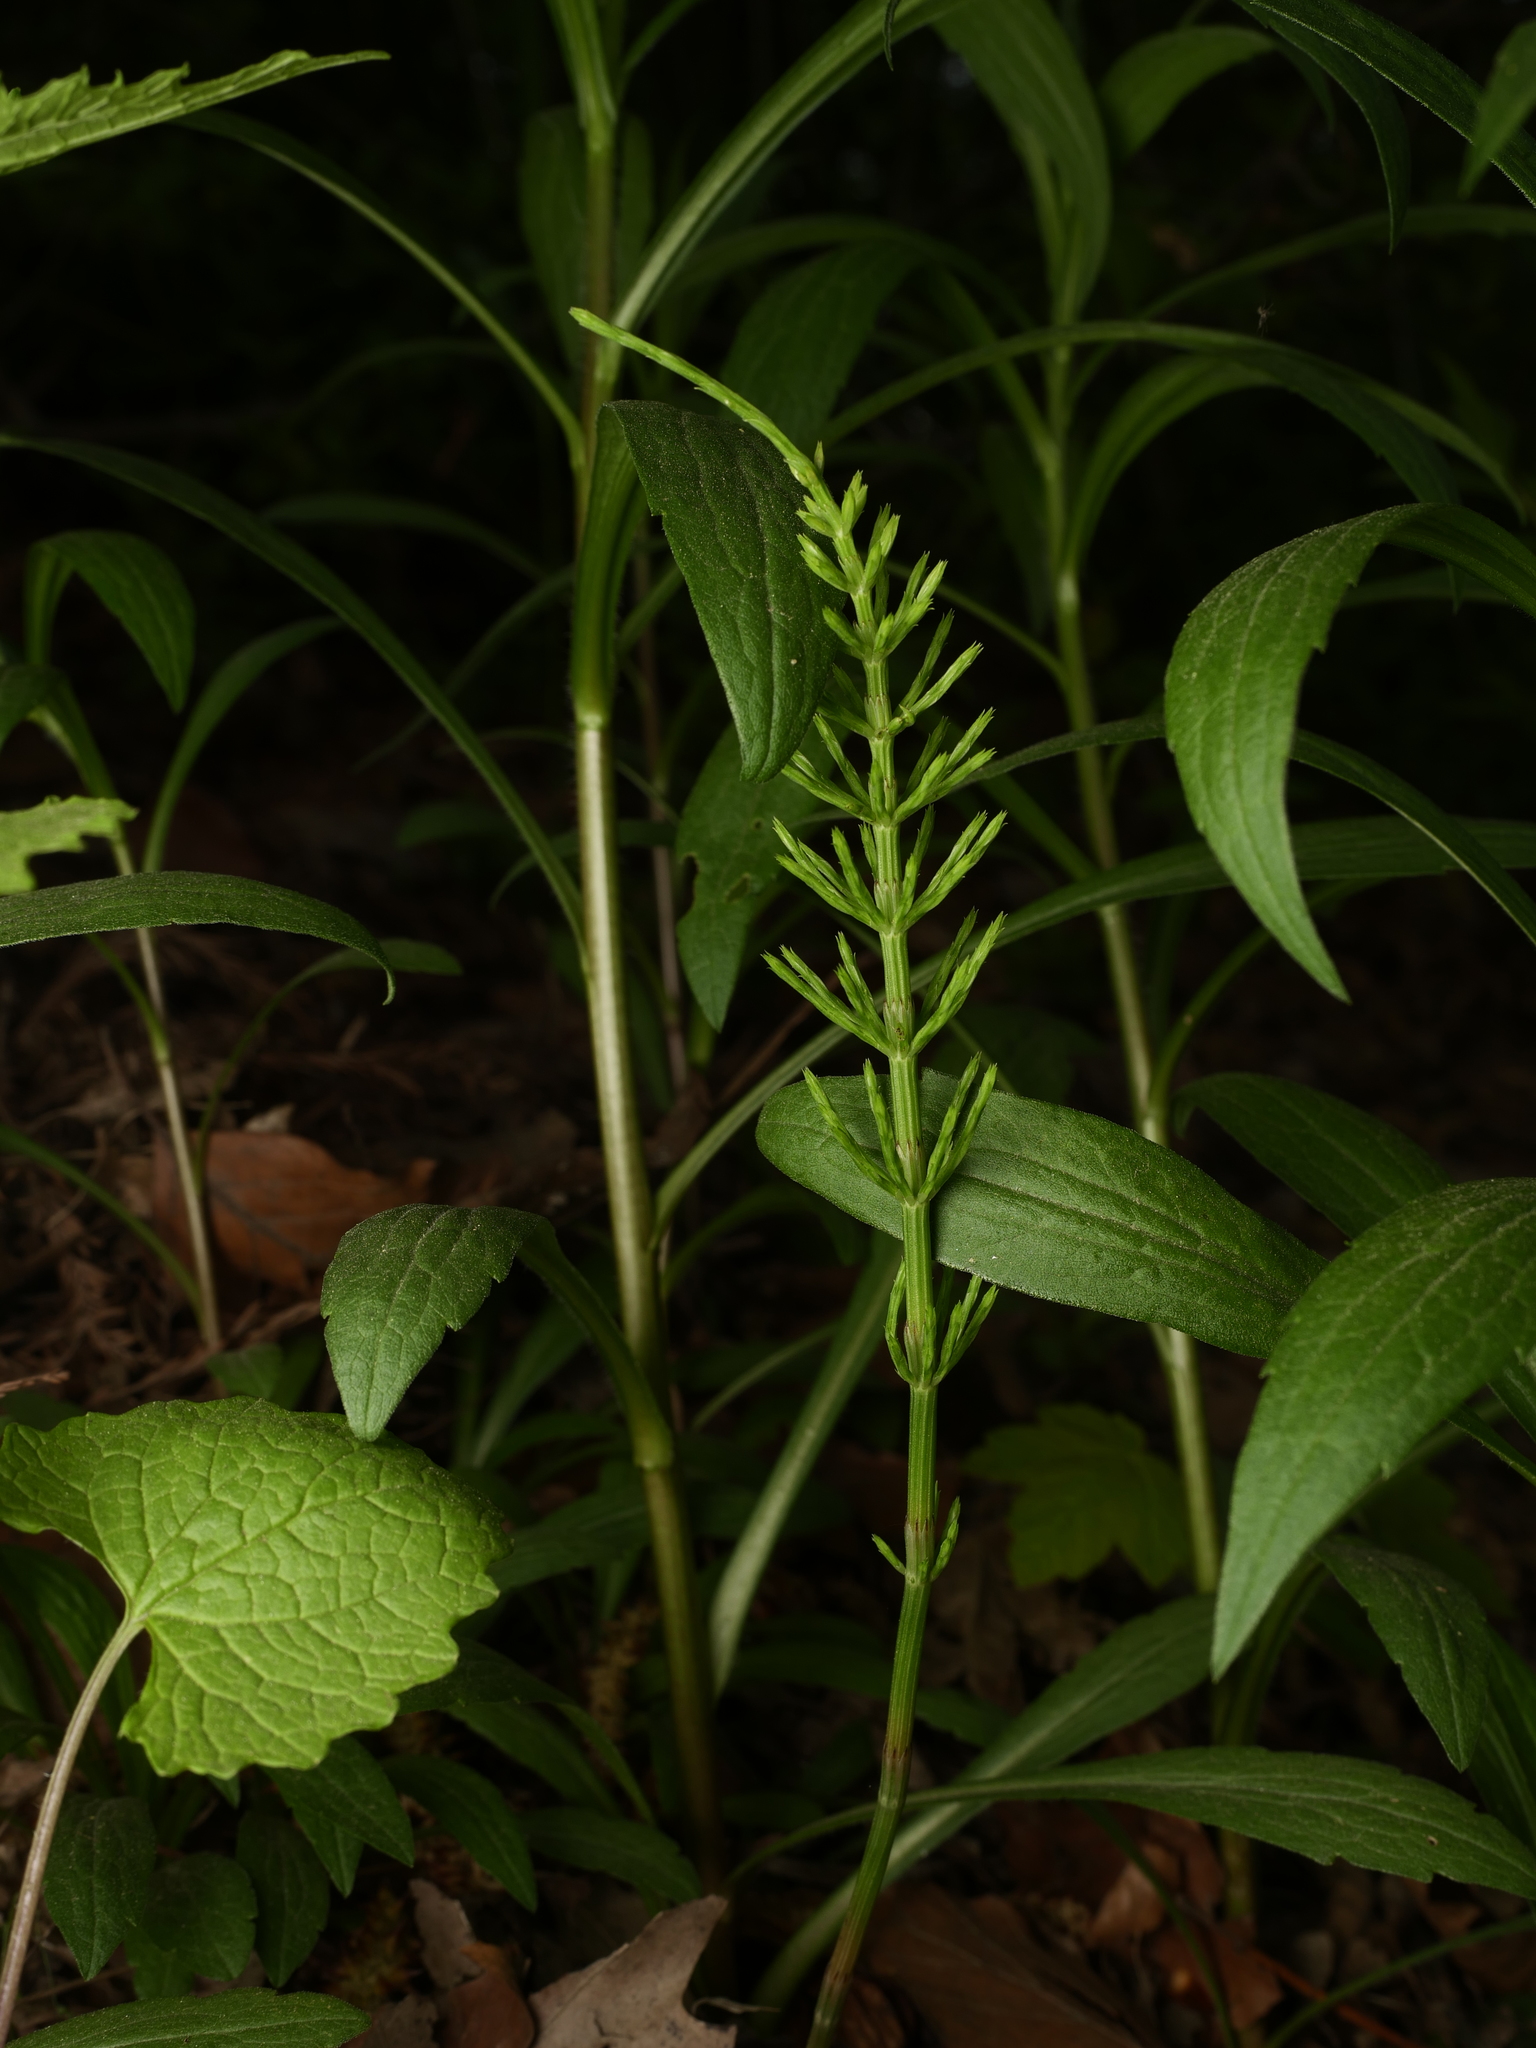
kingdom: Plantae
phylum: Tracheophyta
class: Polypodiopsida
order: Equisetales
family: Equisetaceae
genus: Equisetum
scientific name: Equisetum arvense
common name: Field horsetail
